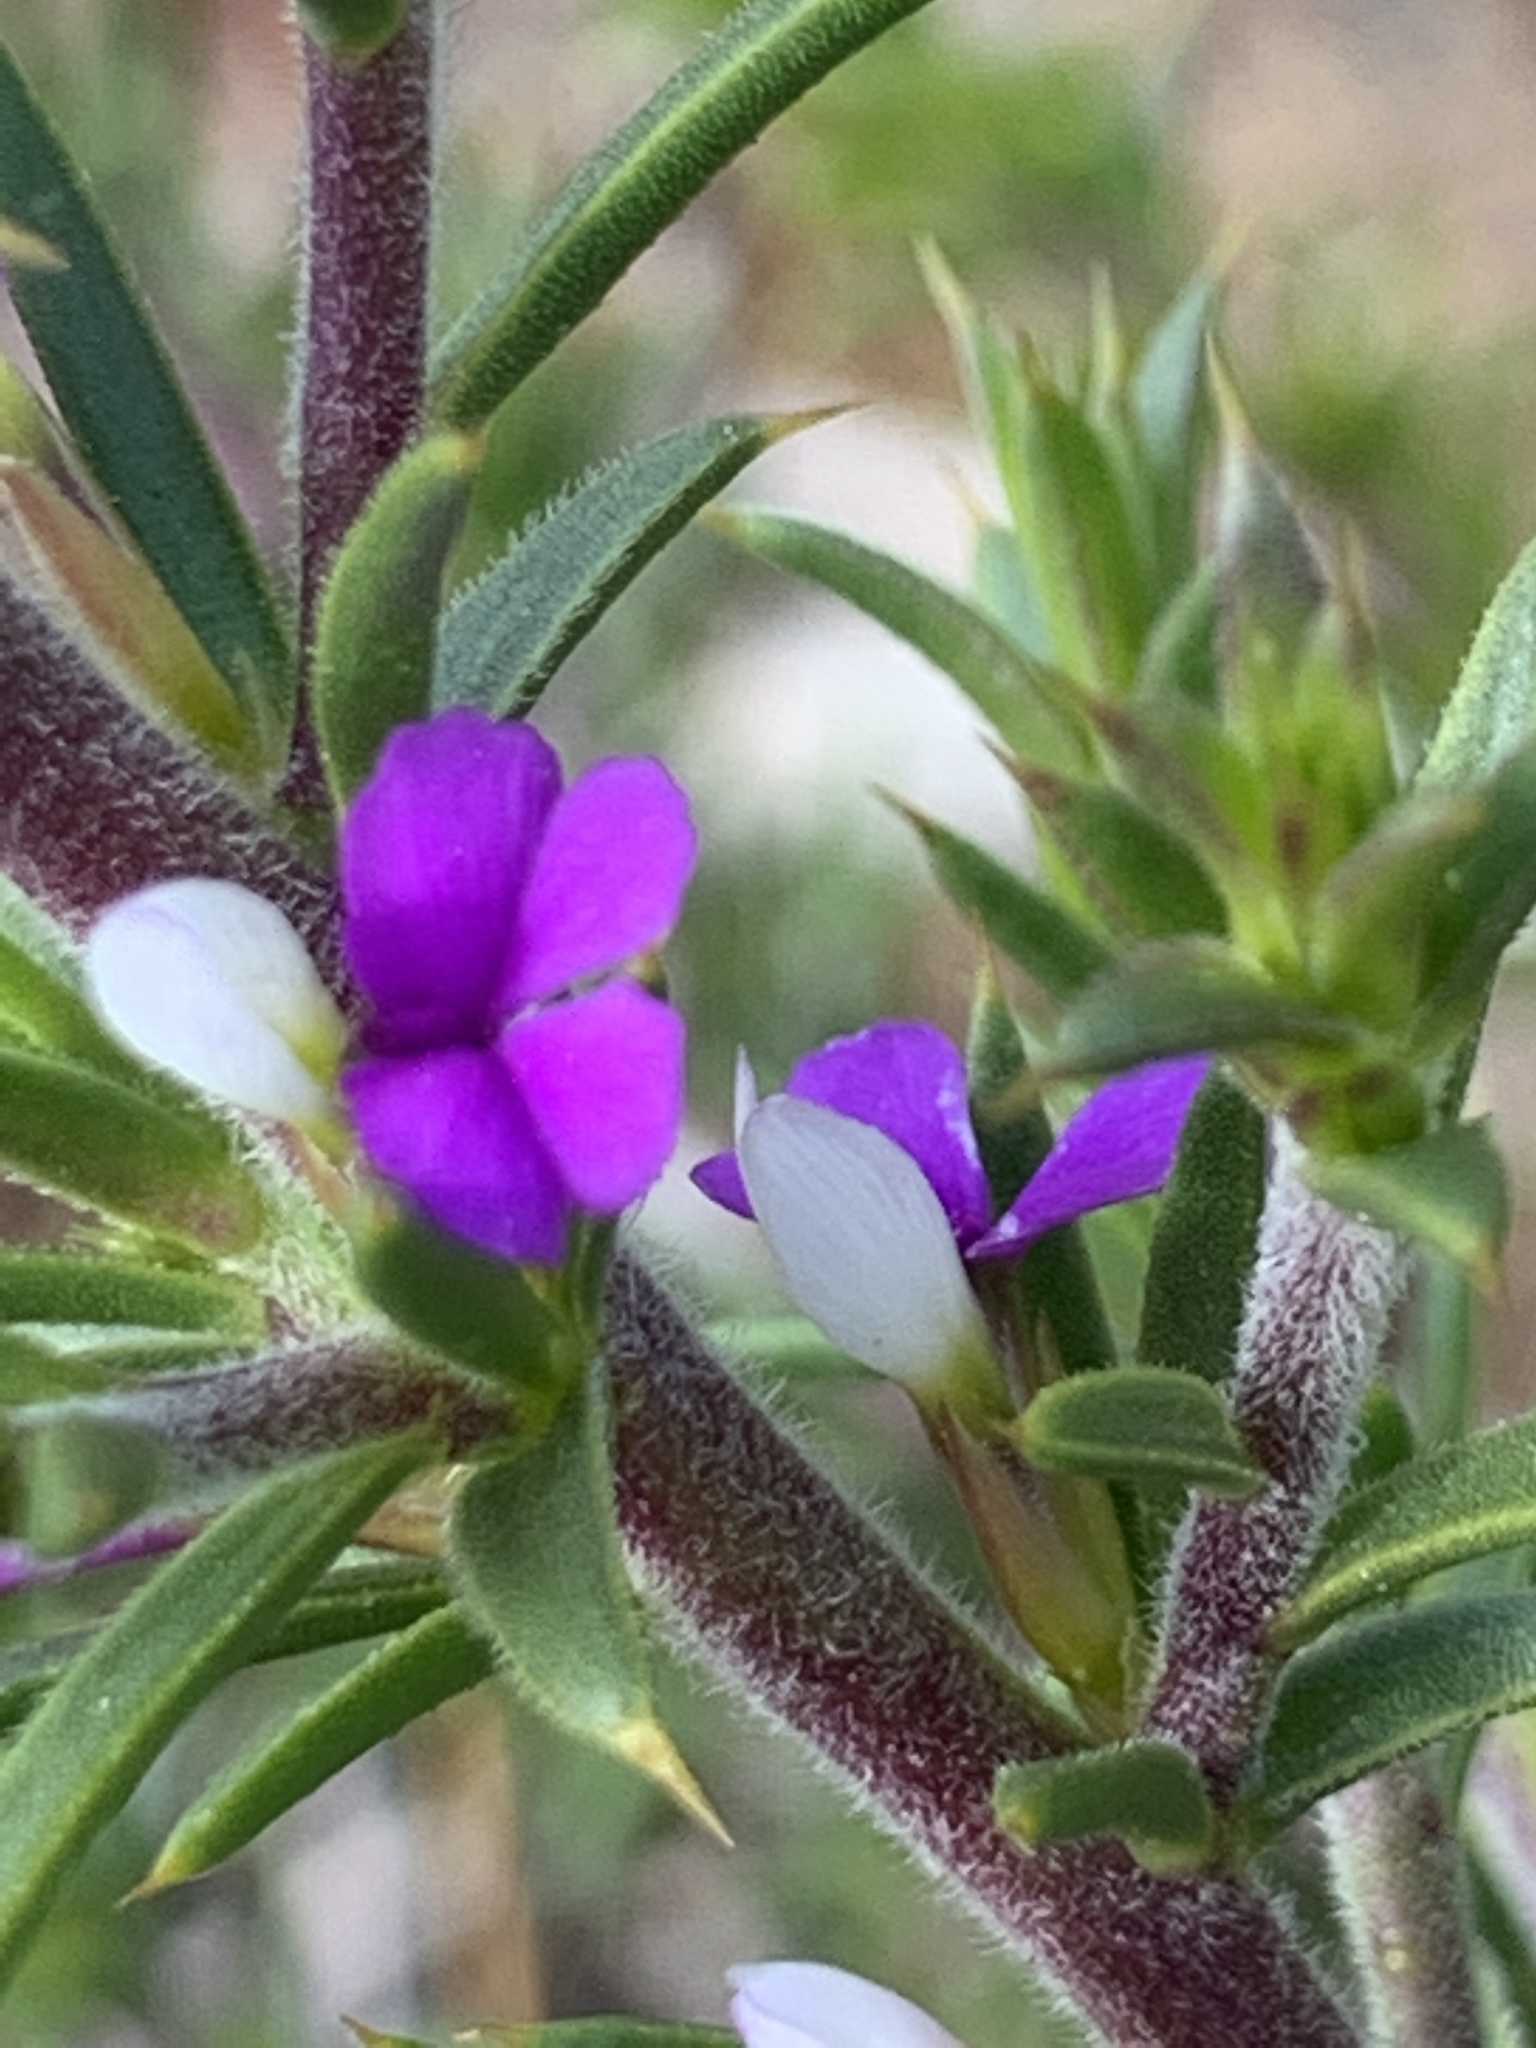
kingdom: Plantae
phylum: Tracheophyta
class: Magnoliopsida
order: Fabales
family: Polygalaceae
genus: Muraltia
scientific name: Muraltia heisteria
